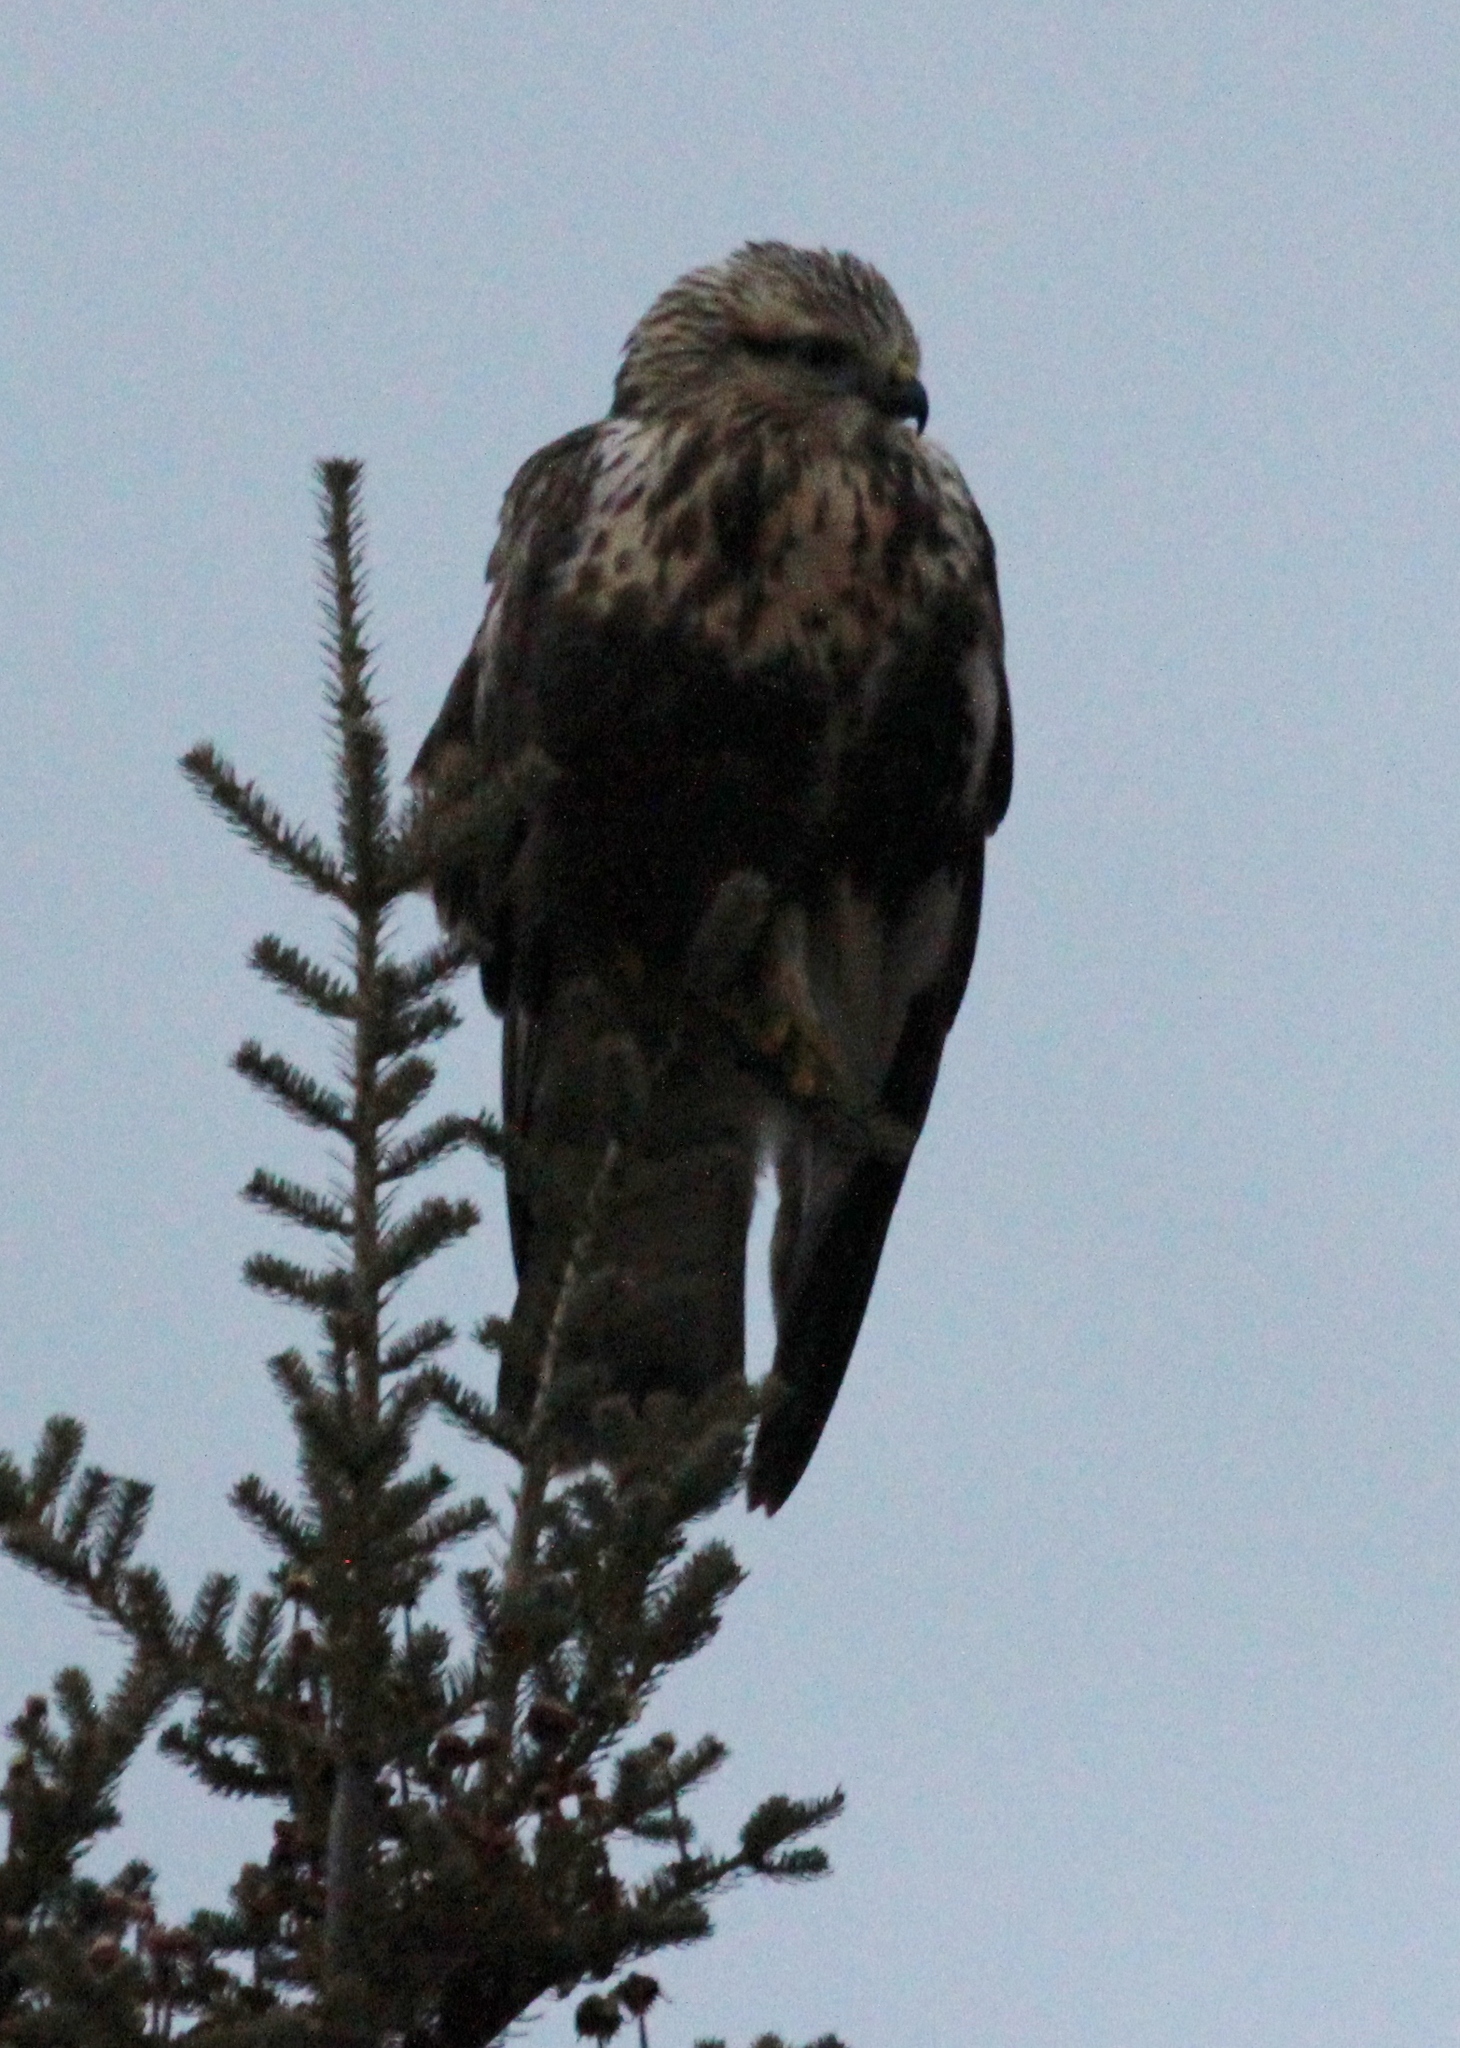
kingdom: Animalia
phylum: Chordata
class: Aves
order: Accipitriformes
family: Accipitridae
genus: Buteo
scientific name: Buteo lagopus
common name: Rough-legged buzzard
